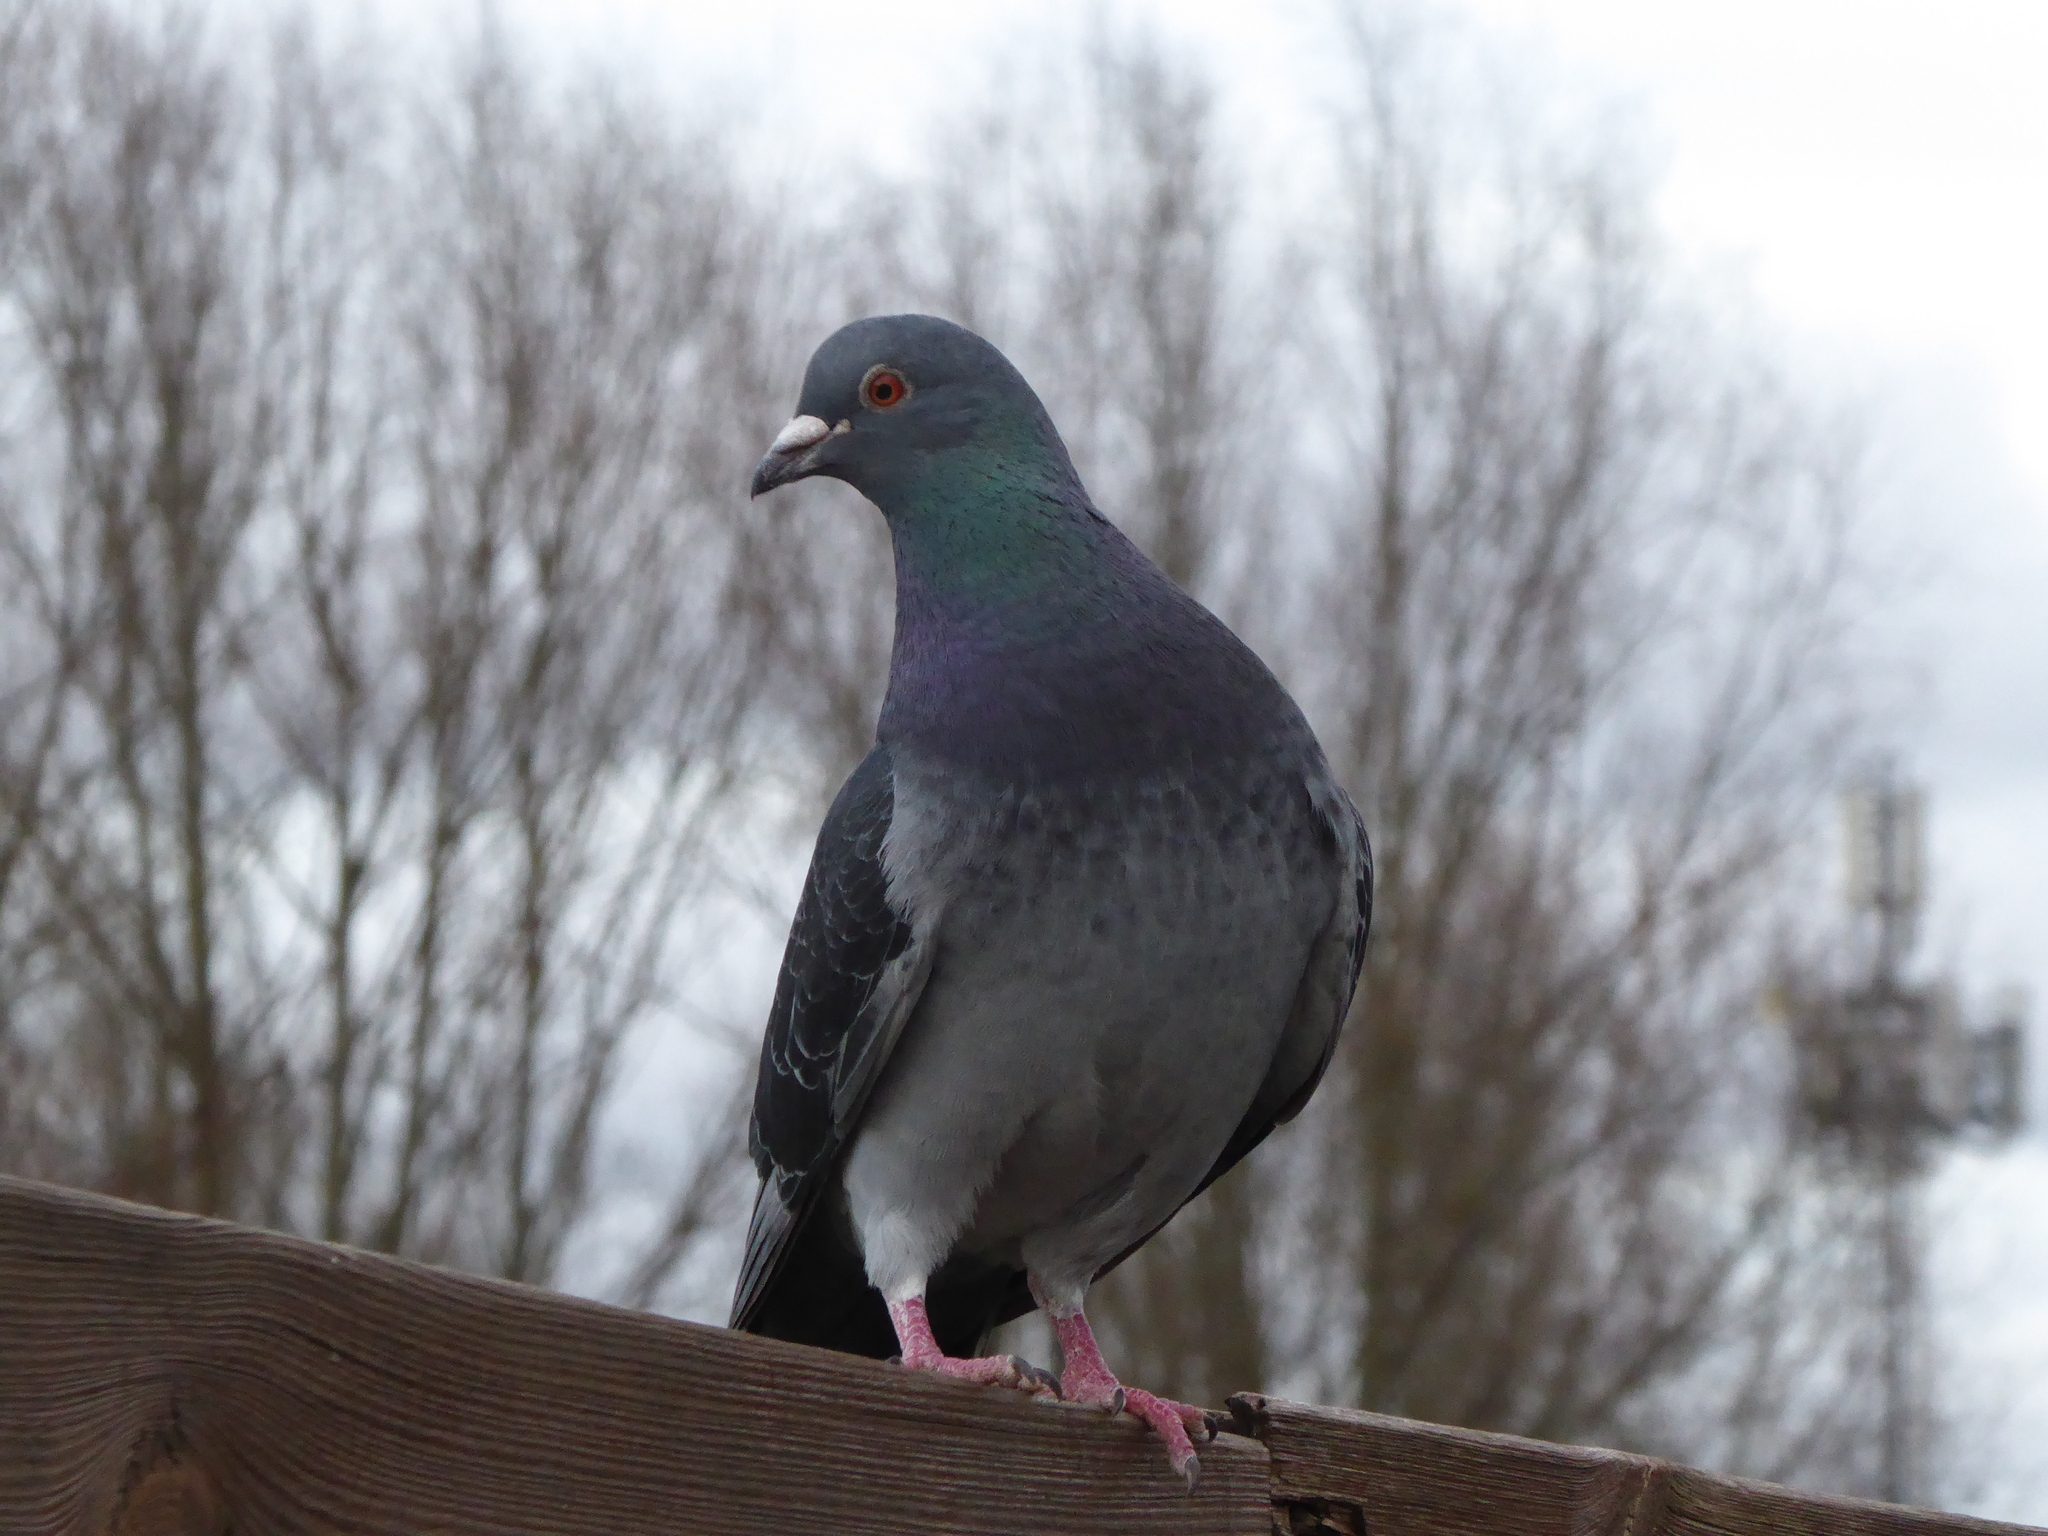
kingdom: Animalia
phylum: Chordata
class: Aves
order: Columbiformes
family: Columbidae
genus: Columba
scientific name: Columba livia
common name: Rock pigeon
